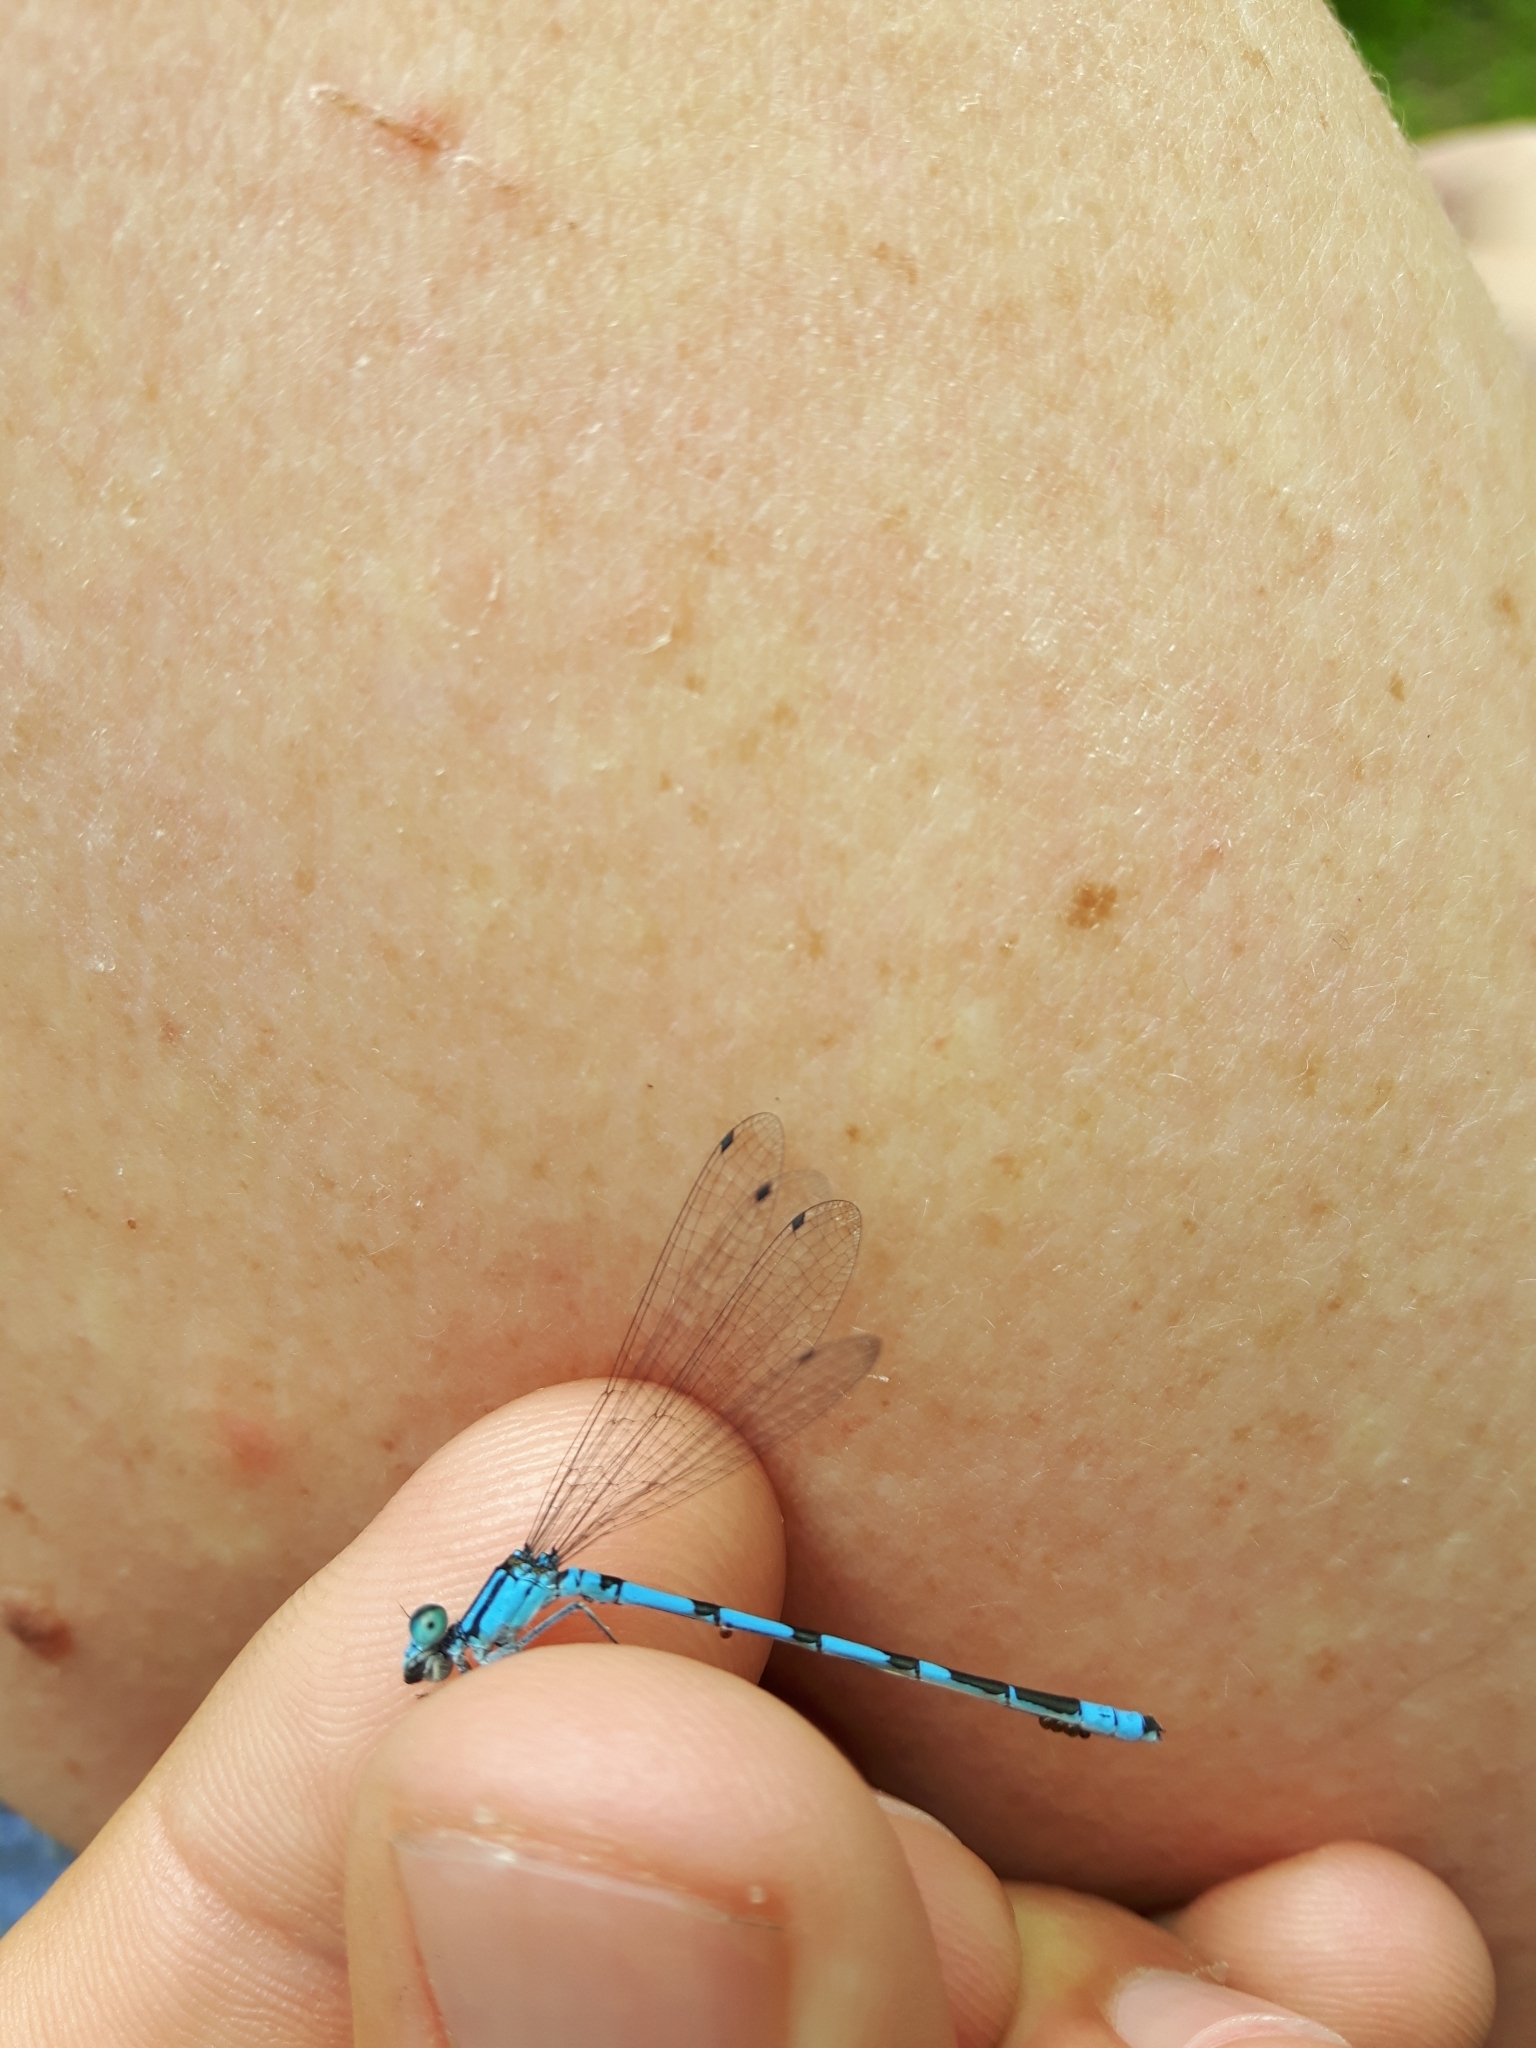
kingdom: Animalia
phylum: Arthropoda
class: Insecta
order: Odonata
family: Coenagrionidae
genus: Enallagma
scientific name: Enallagma hageni
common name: Hagen's bluet
